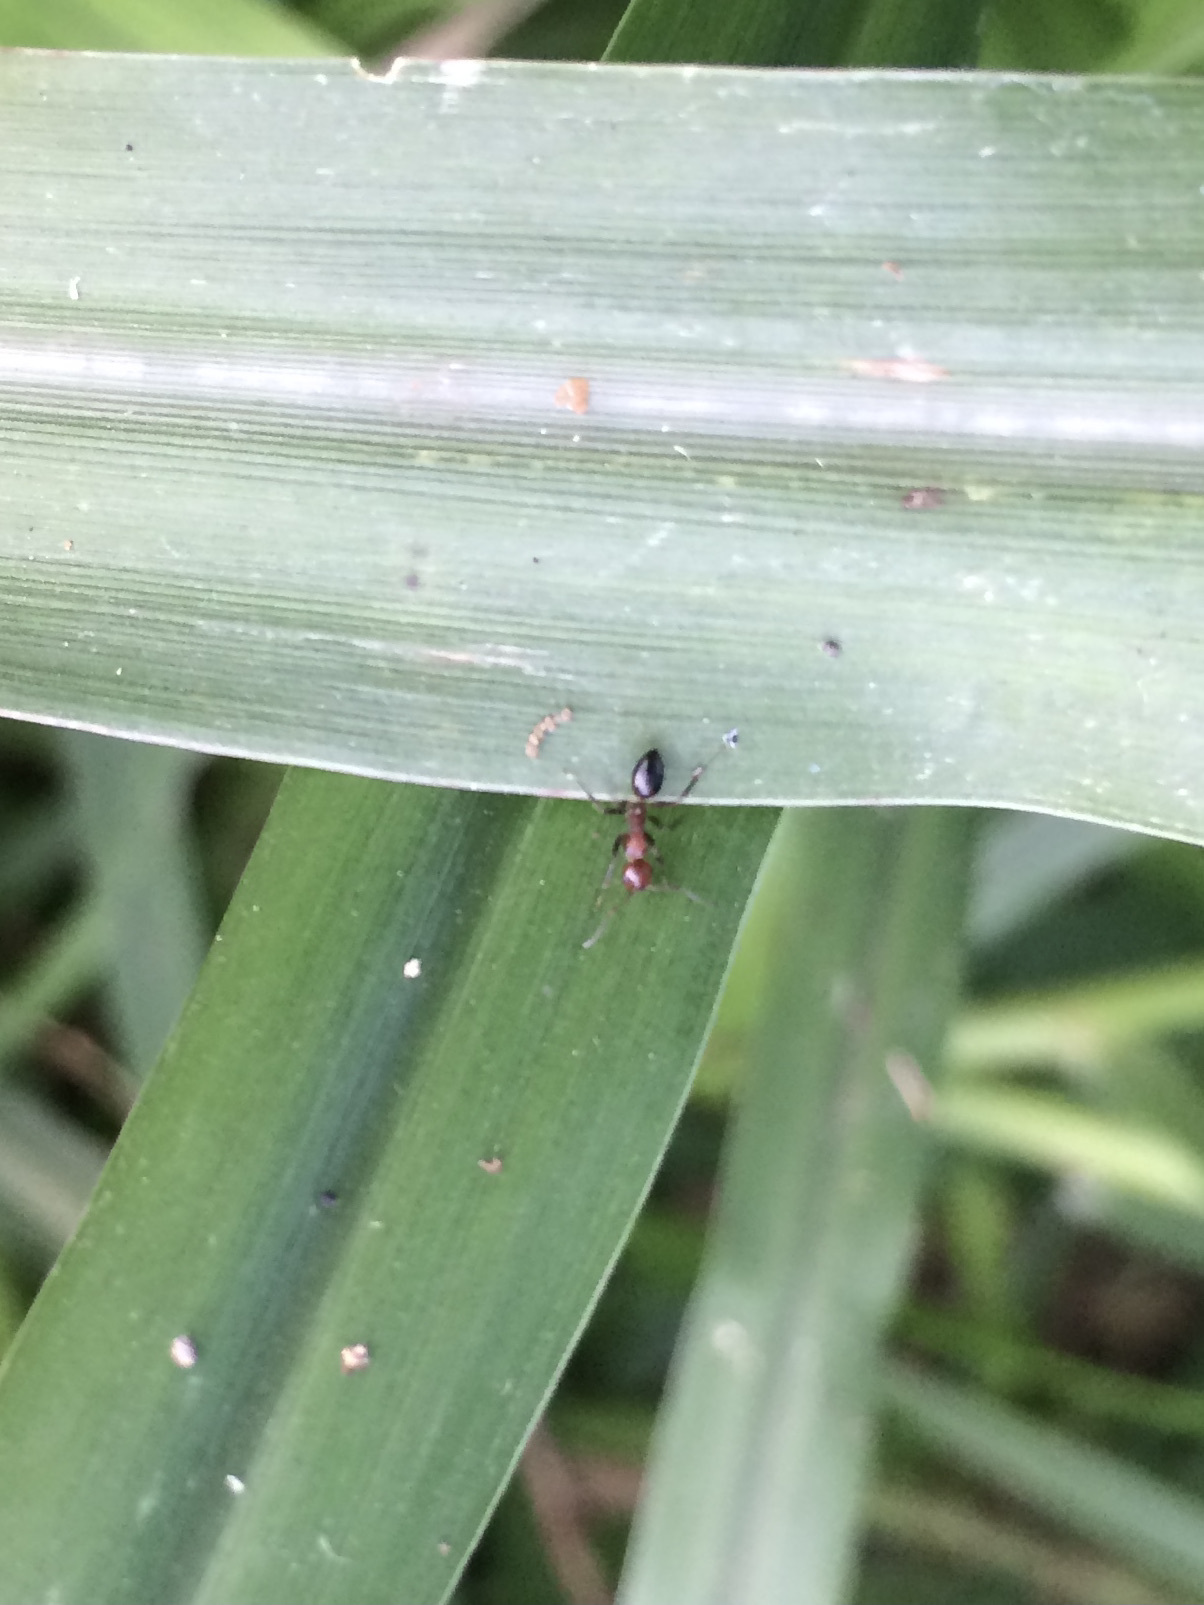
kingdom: Animalia
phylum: Arthropoda
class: Insecta
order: Hymenoptera
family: Formicidae
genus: Camponotus
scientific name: Camponotus nirvanae
